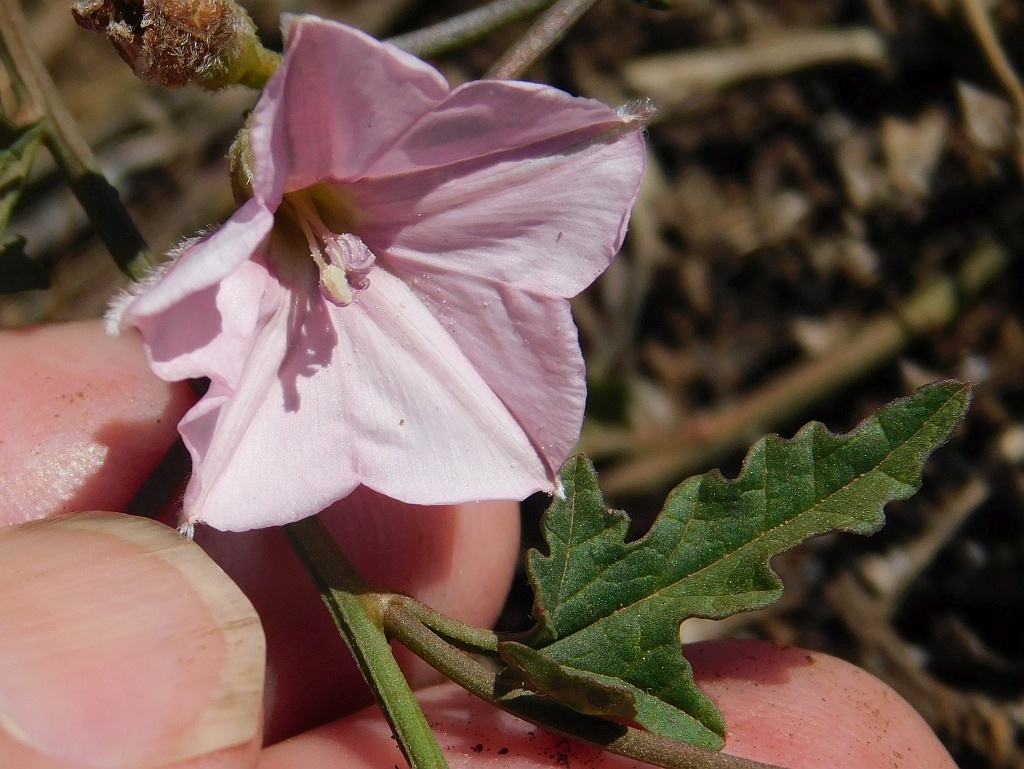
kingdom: Plantae
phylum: Tracheophyta
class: Magnoliopsida
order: Solanales
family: Convolvulaceae
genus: Convolvulus
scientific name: Convolvulus capensis
